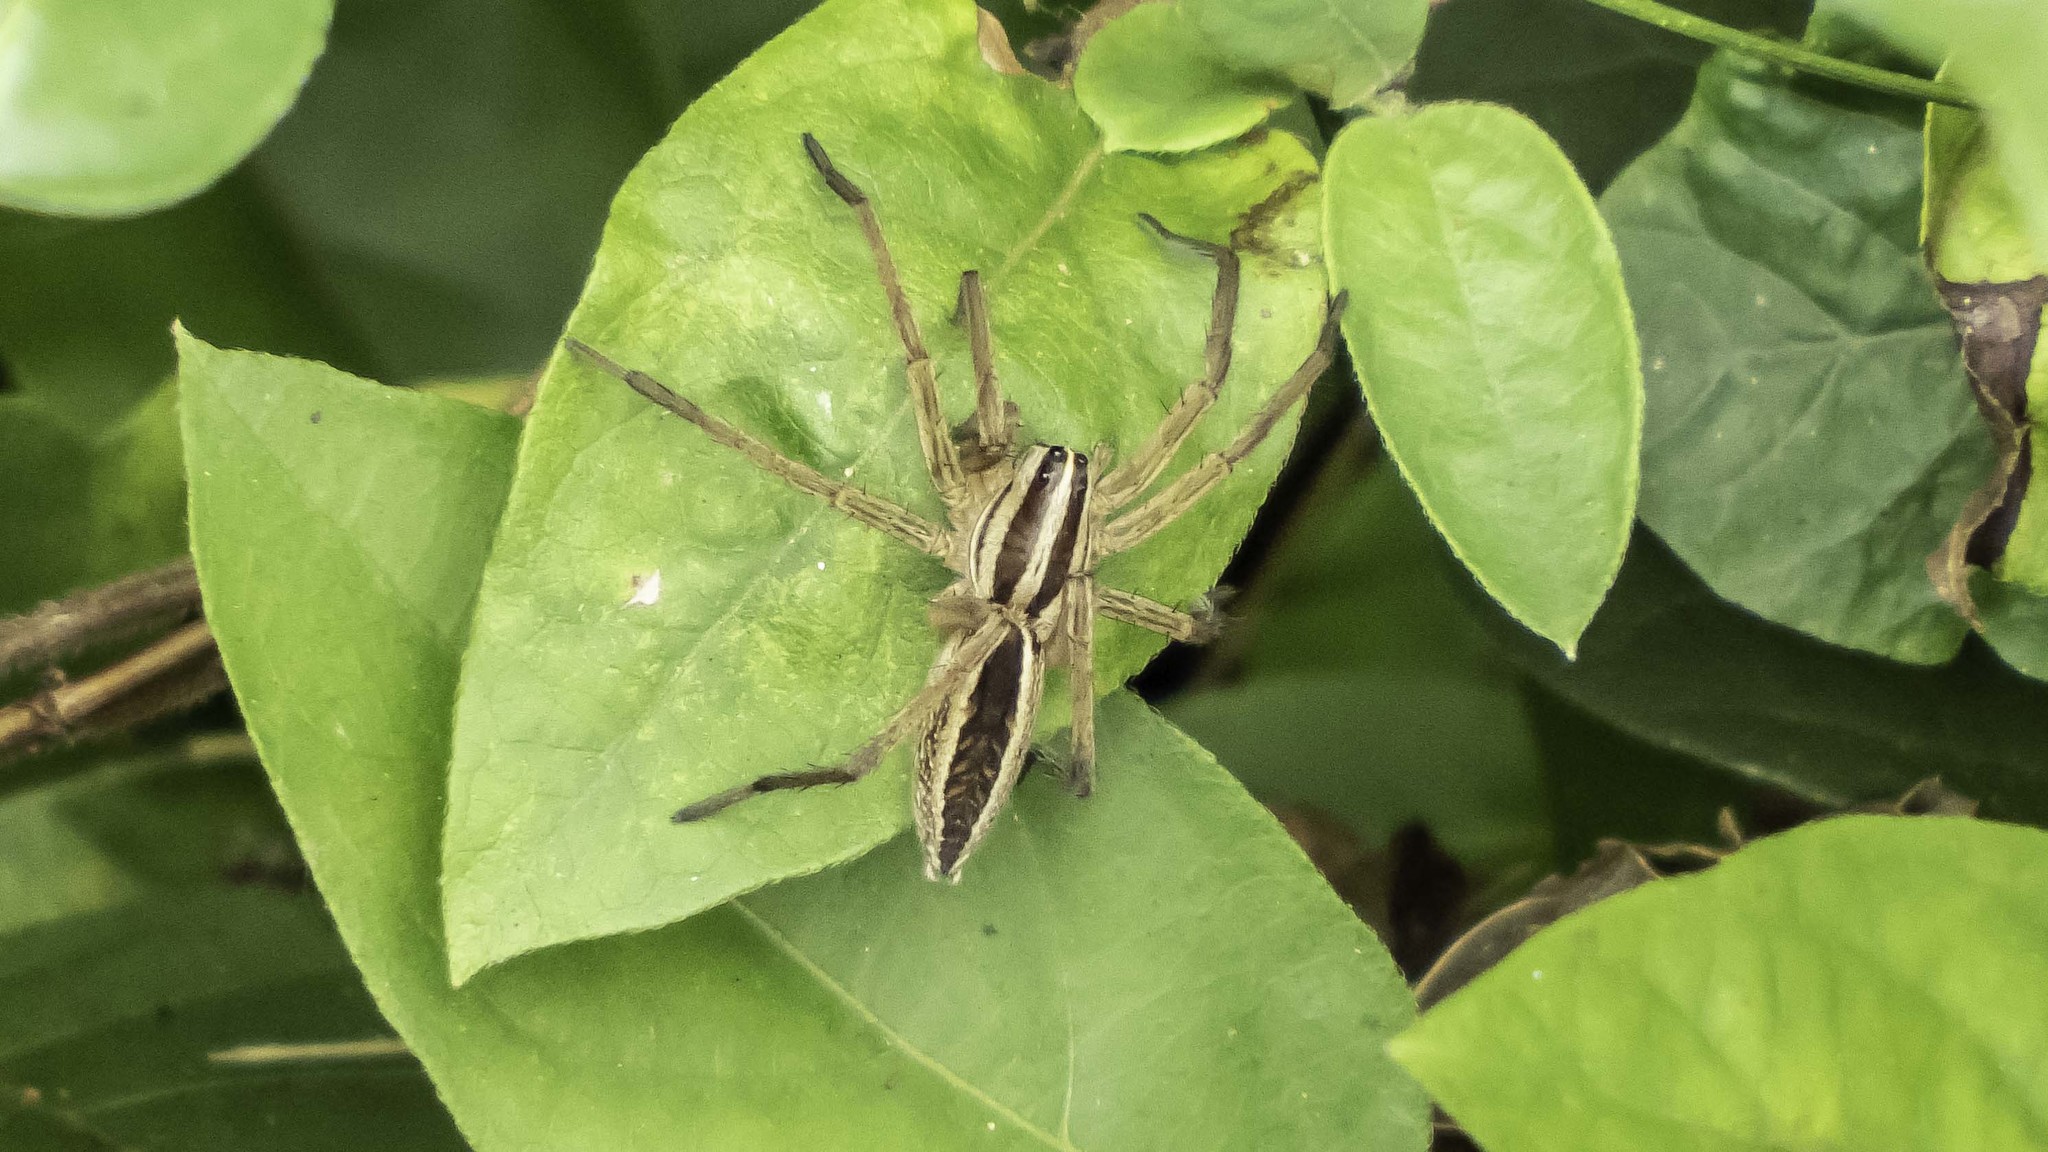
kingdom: Animalia
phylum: Arthropoda
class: Arachnida
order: Araneae
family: Lycosidae
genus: Rabidosa
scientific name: Rabidosa rabida
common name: Rabid wolf spider
